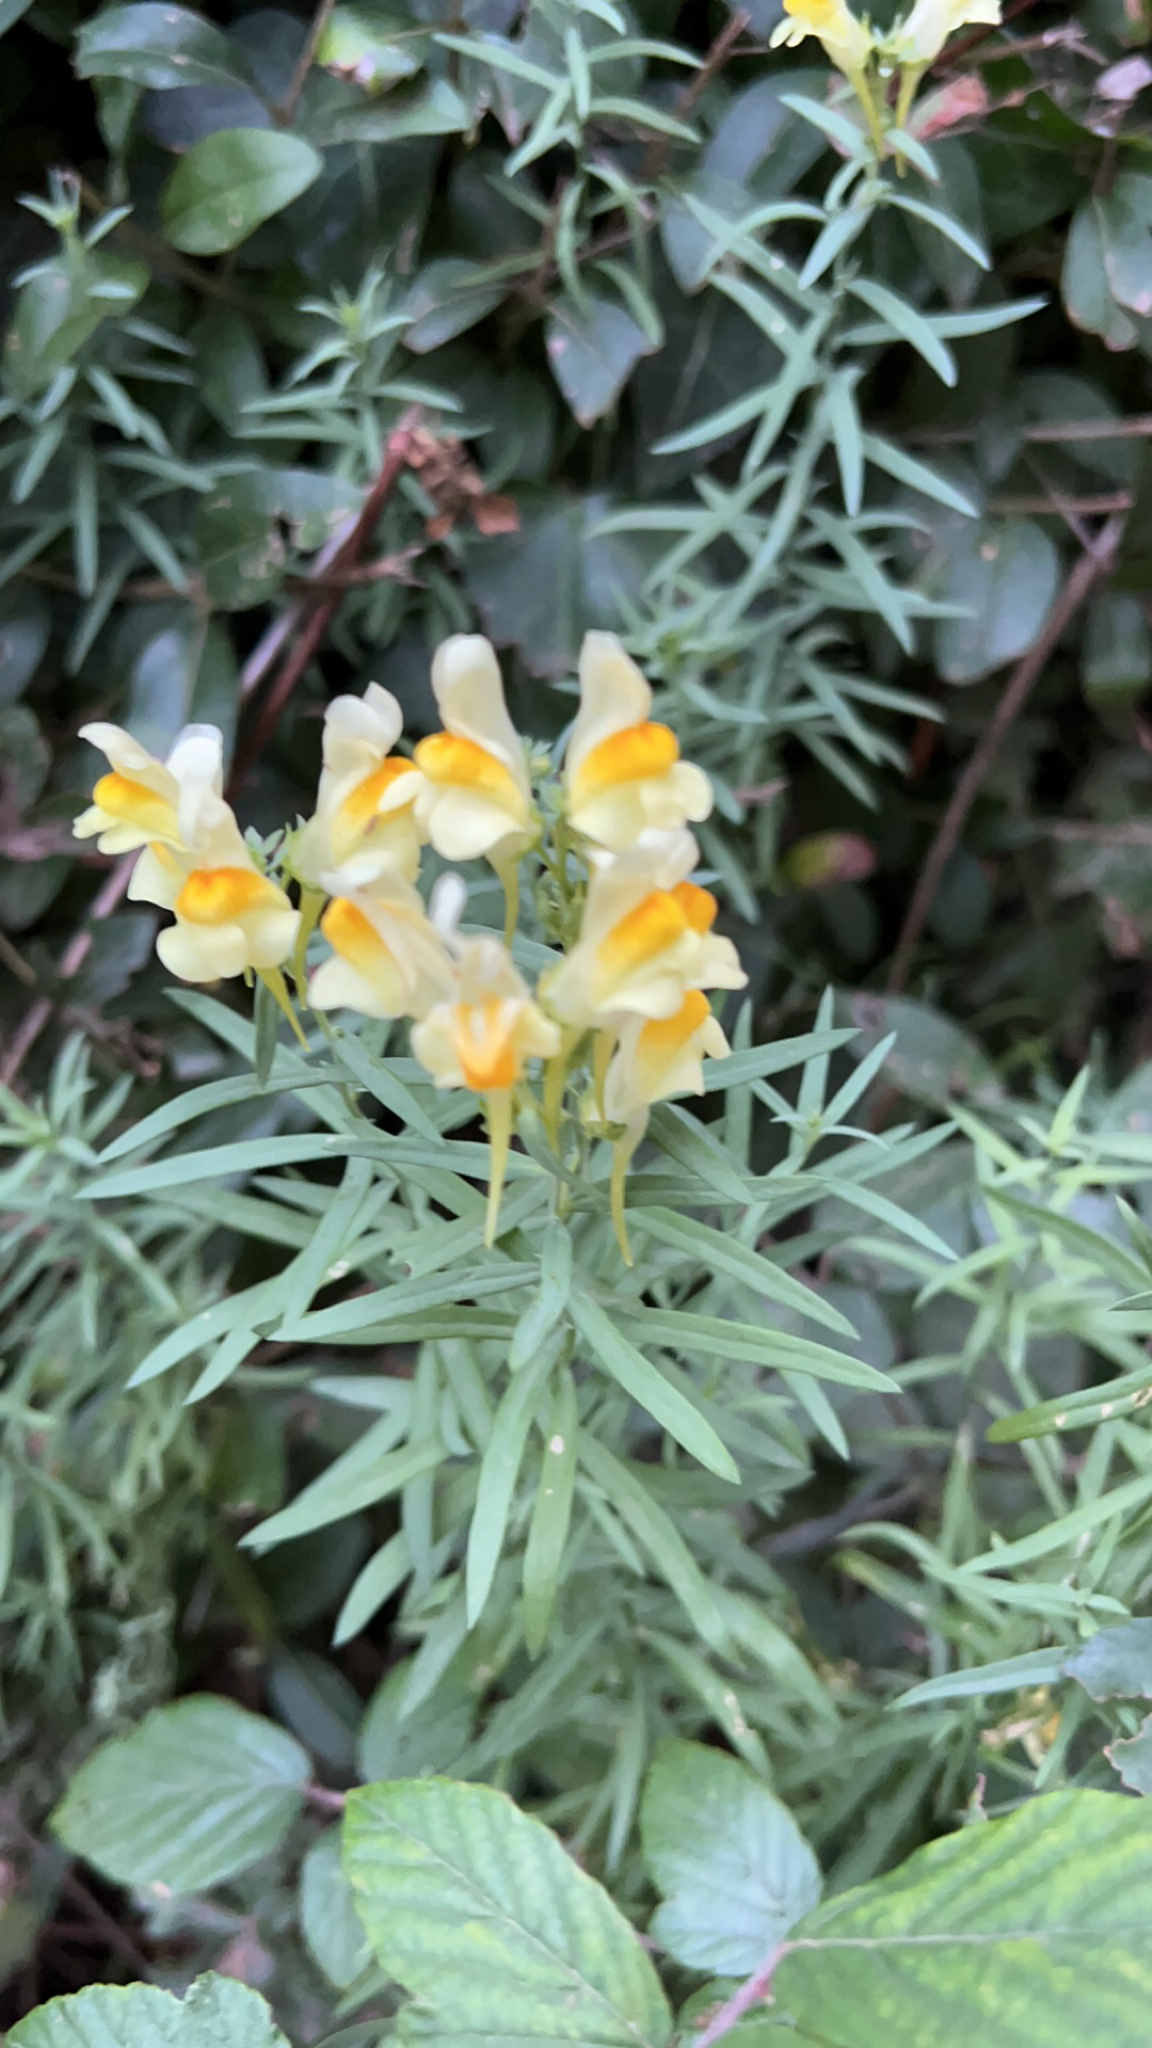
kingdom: Plantae
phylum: Tracheophyta
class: Magnoliopsida
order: Lamiales
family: Plantaginaceae
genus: Linaria
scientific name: Linaria vulgaris
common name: Butter and eggs
